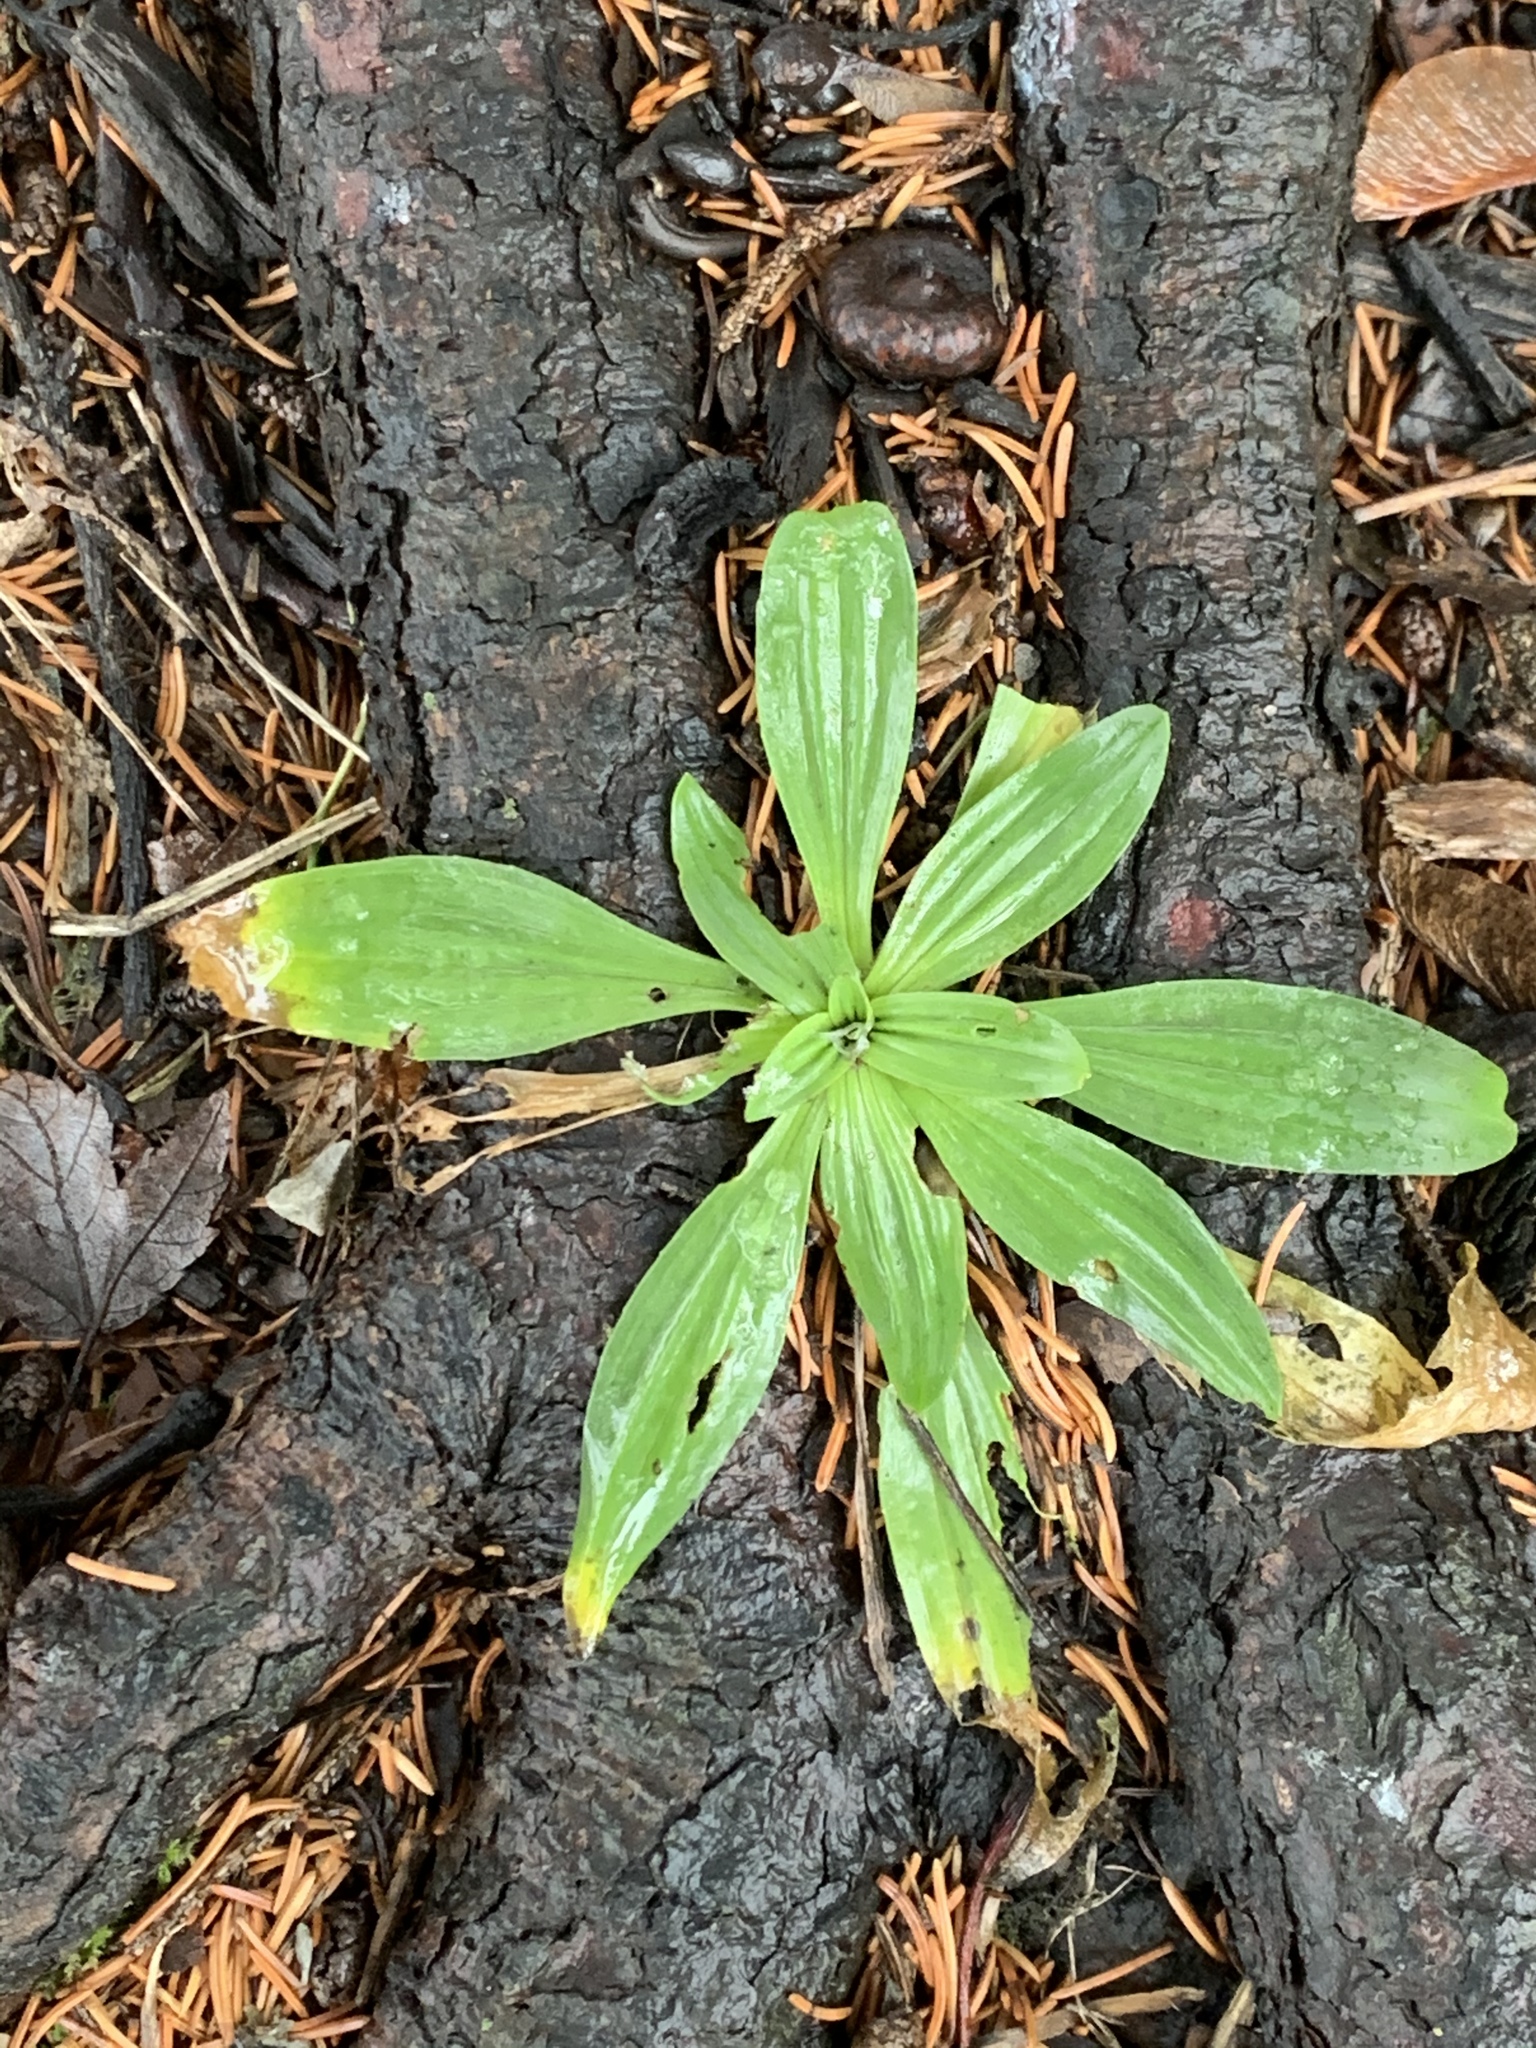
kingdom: Plantae
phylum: Tracheophyta
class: Magnoliopsida
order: Lamiales
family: Plantaginaceae
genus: Plantago
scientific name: Plantago lanceolata
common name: Ribwort plantain
